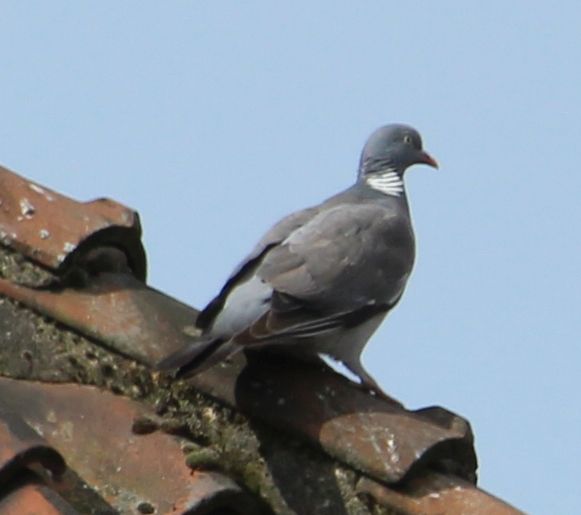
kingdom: Animalia
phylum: Chordata
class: Aves
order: Columbiformes
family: Columbidae
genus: Columba
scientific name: Columba palumbus
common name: Common wood pigeon
